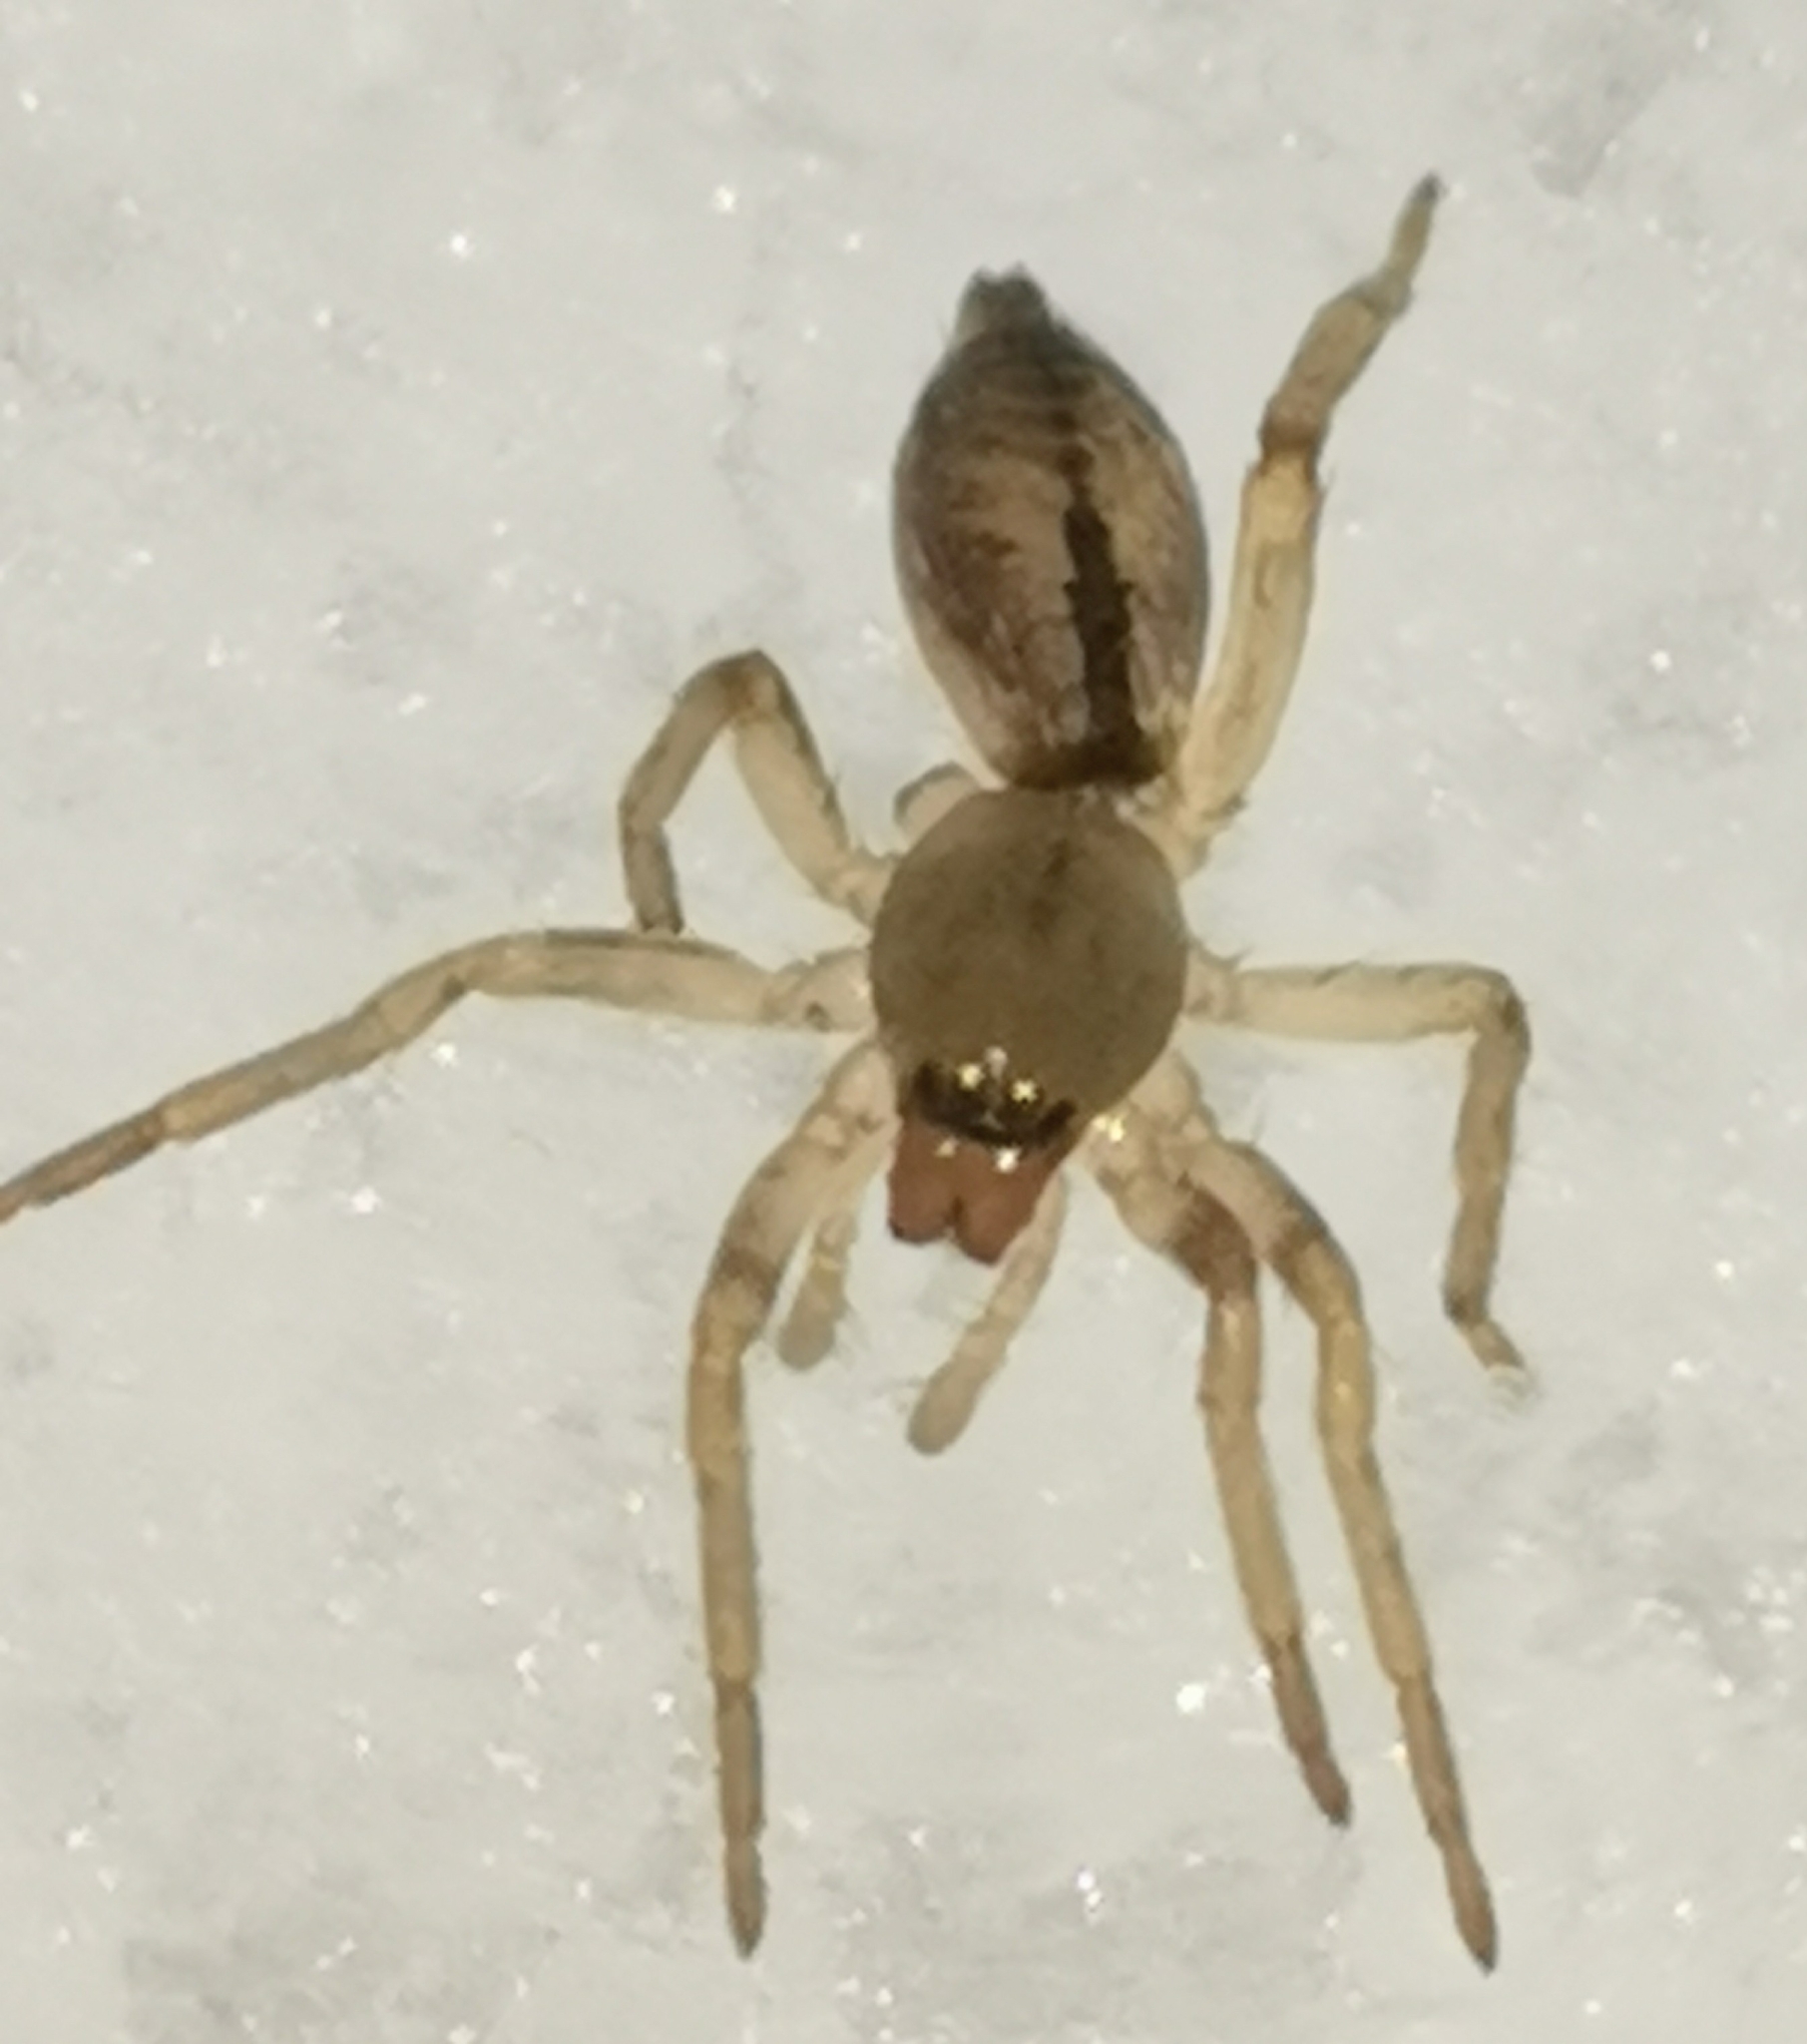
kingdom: Animalia
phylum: Arthropoda
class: Arachnida
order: Araneae
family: Clubionidae
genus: Clubiona
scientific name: Clubiona subsultans
